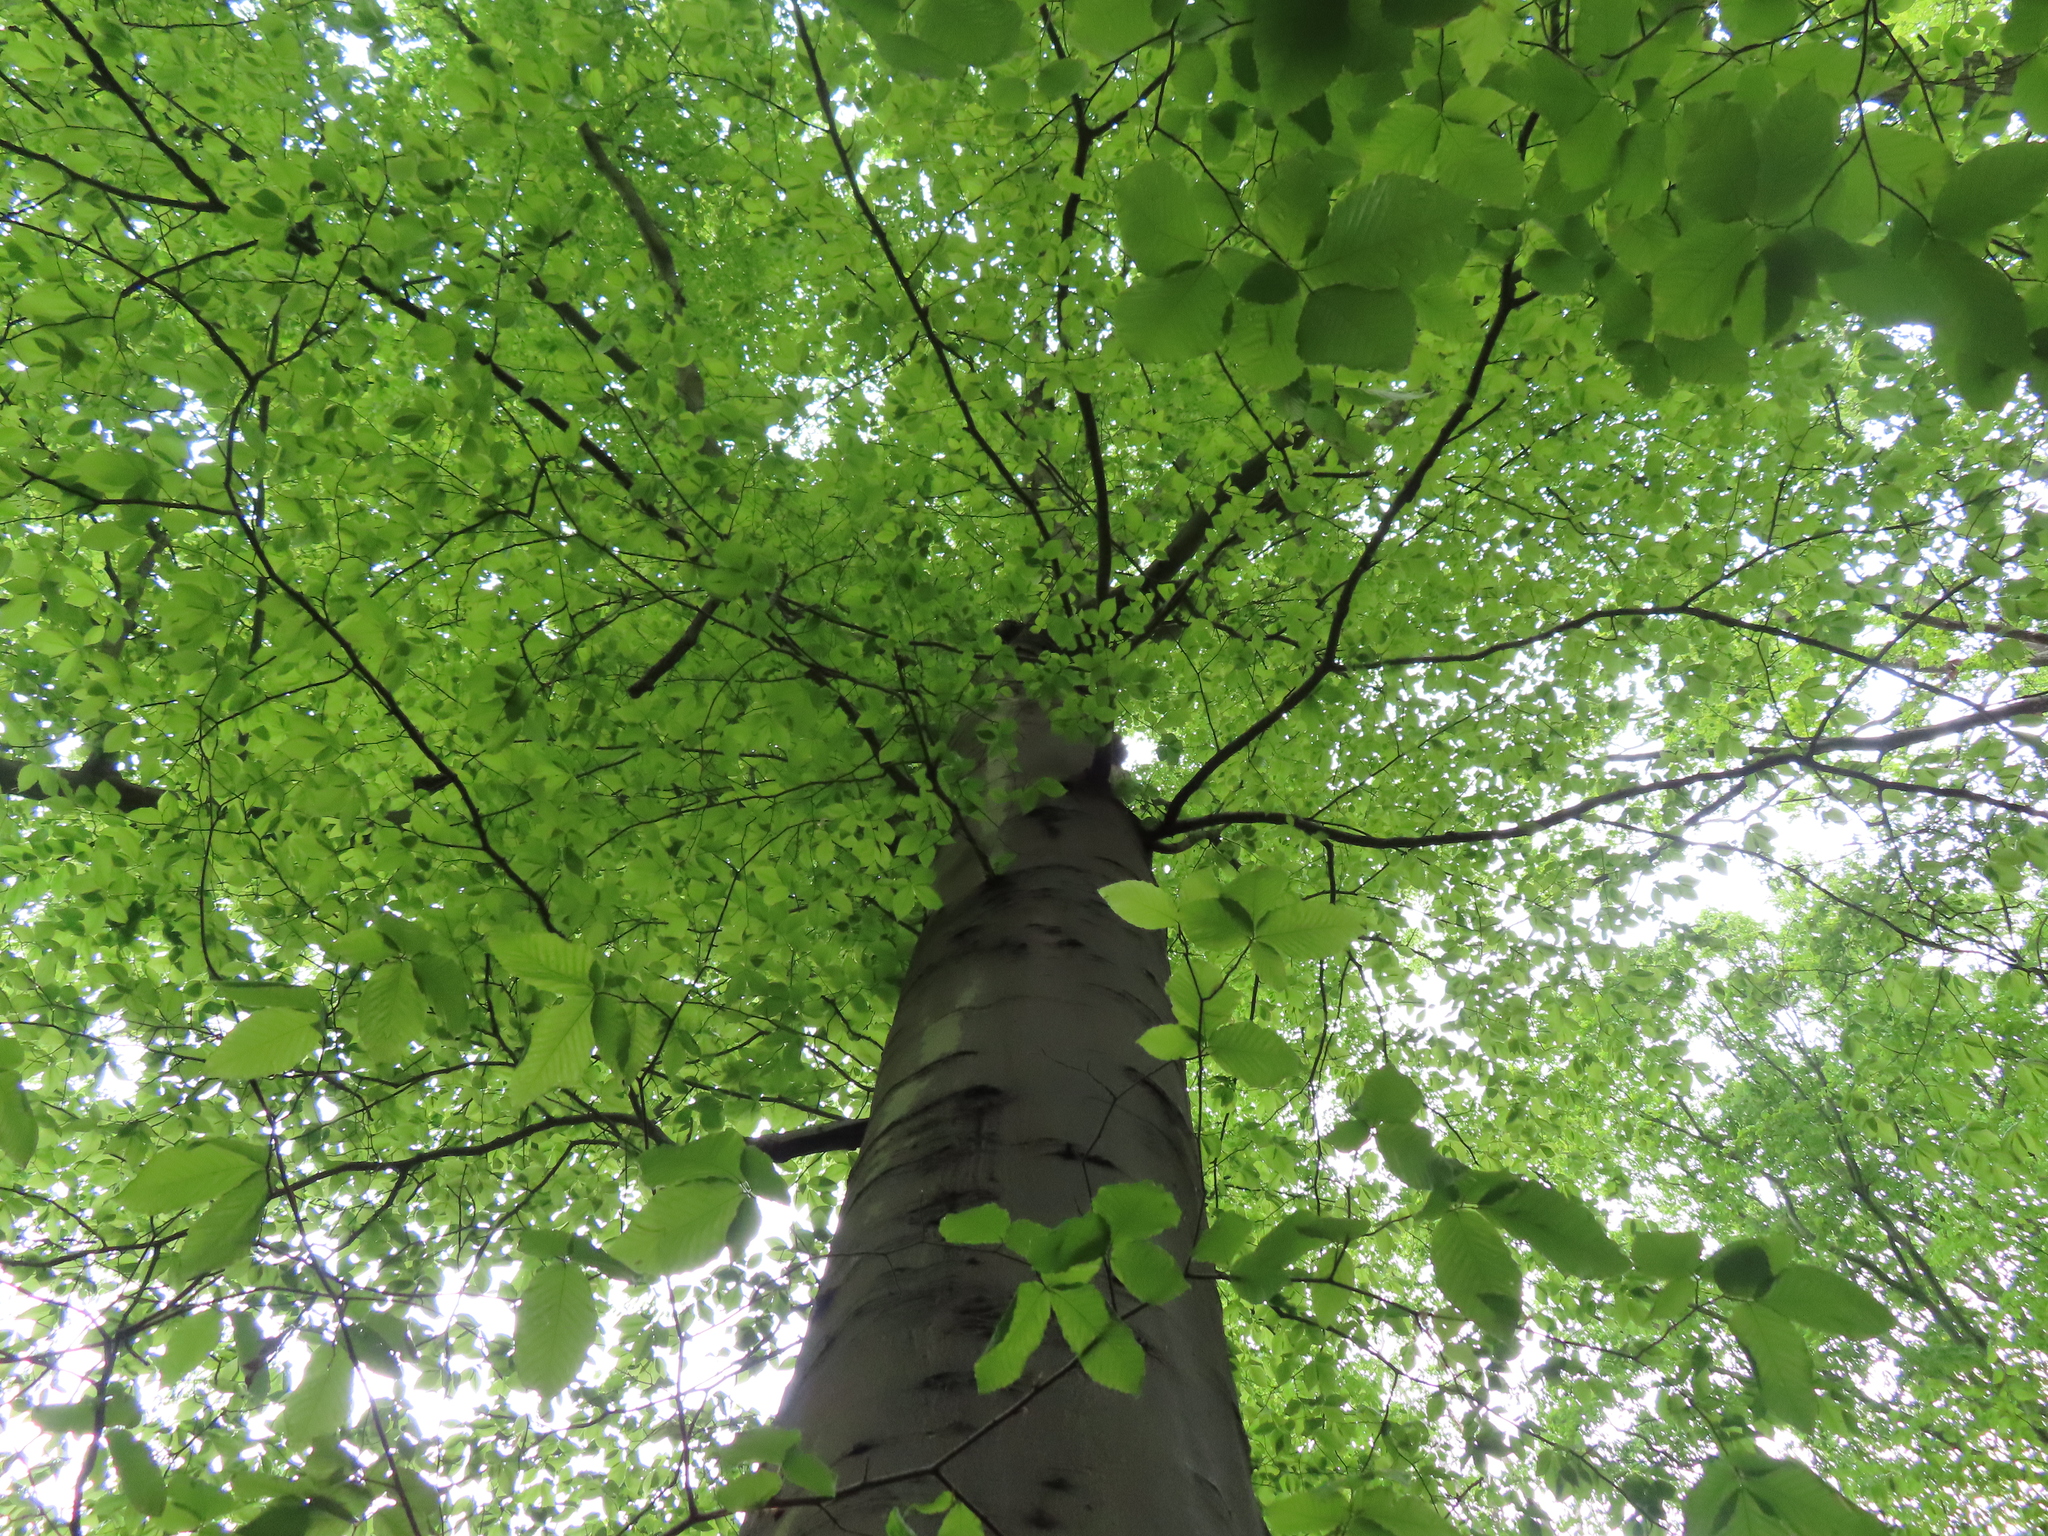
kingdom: Plantae
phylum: Tracheophyta
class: Magnoliopsida
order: Fagales
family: Fagaceae
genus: Fagus
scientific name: Fagus grandifolia
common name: American beech
